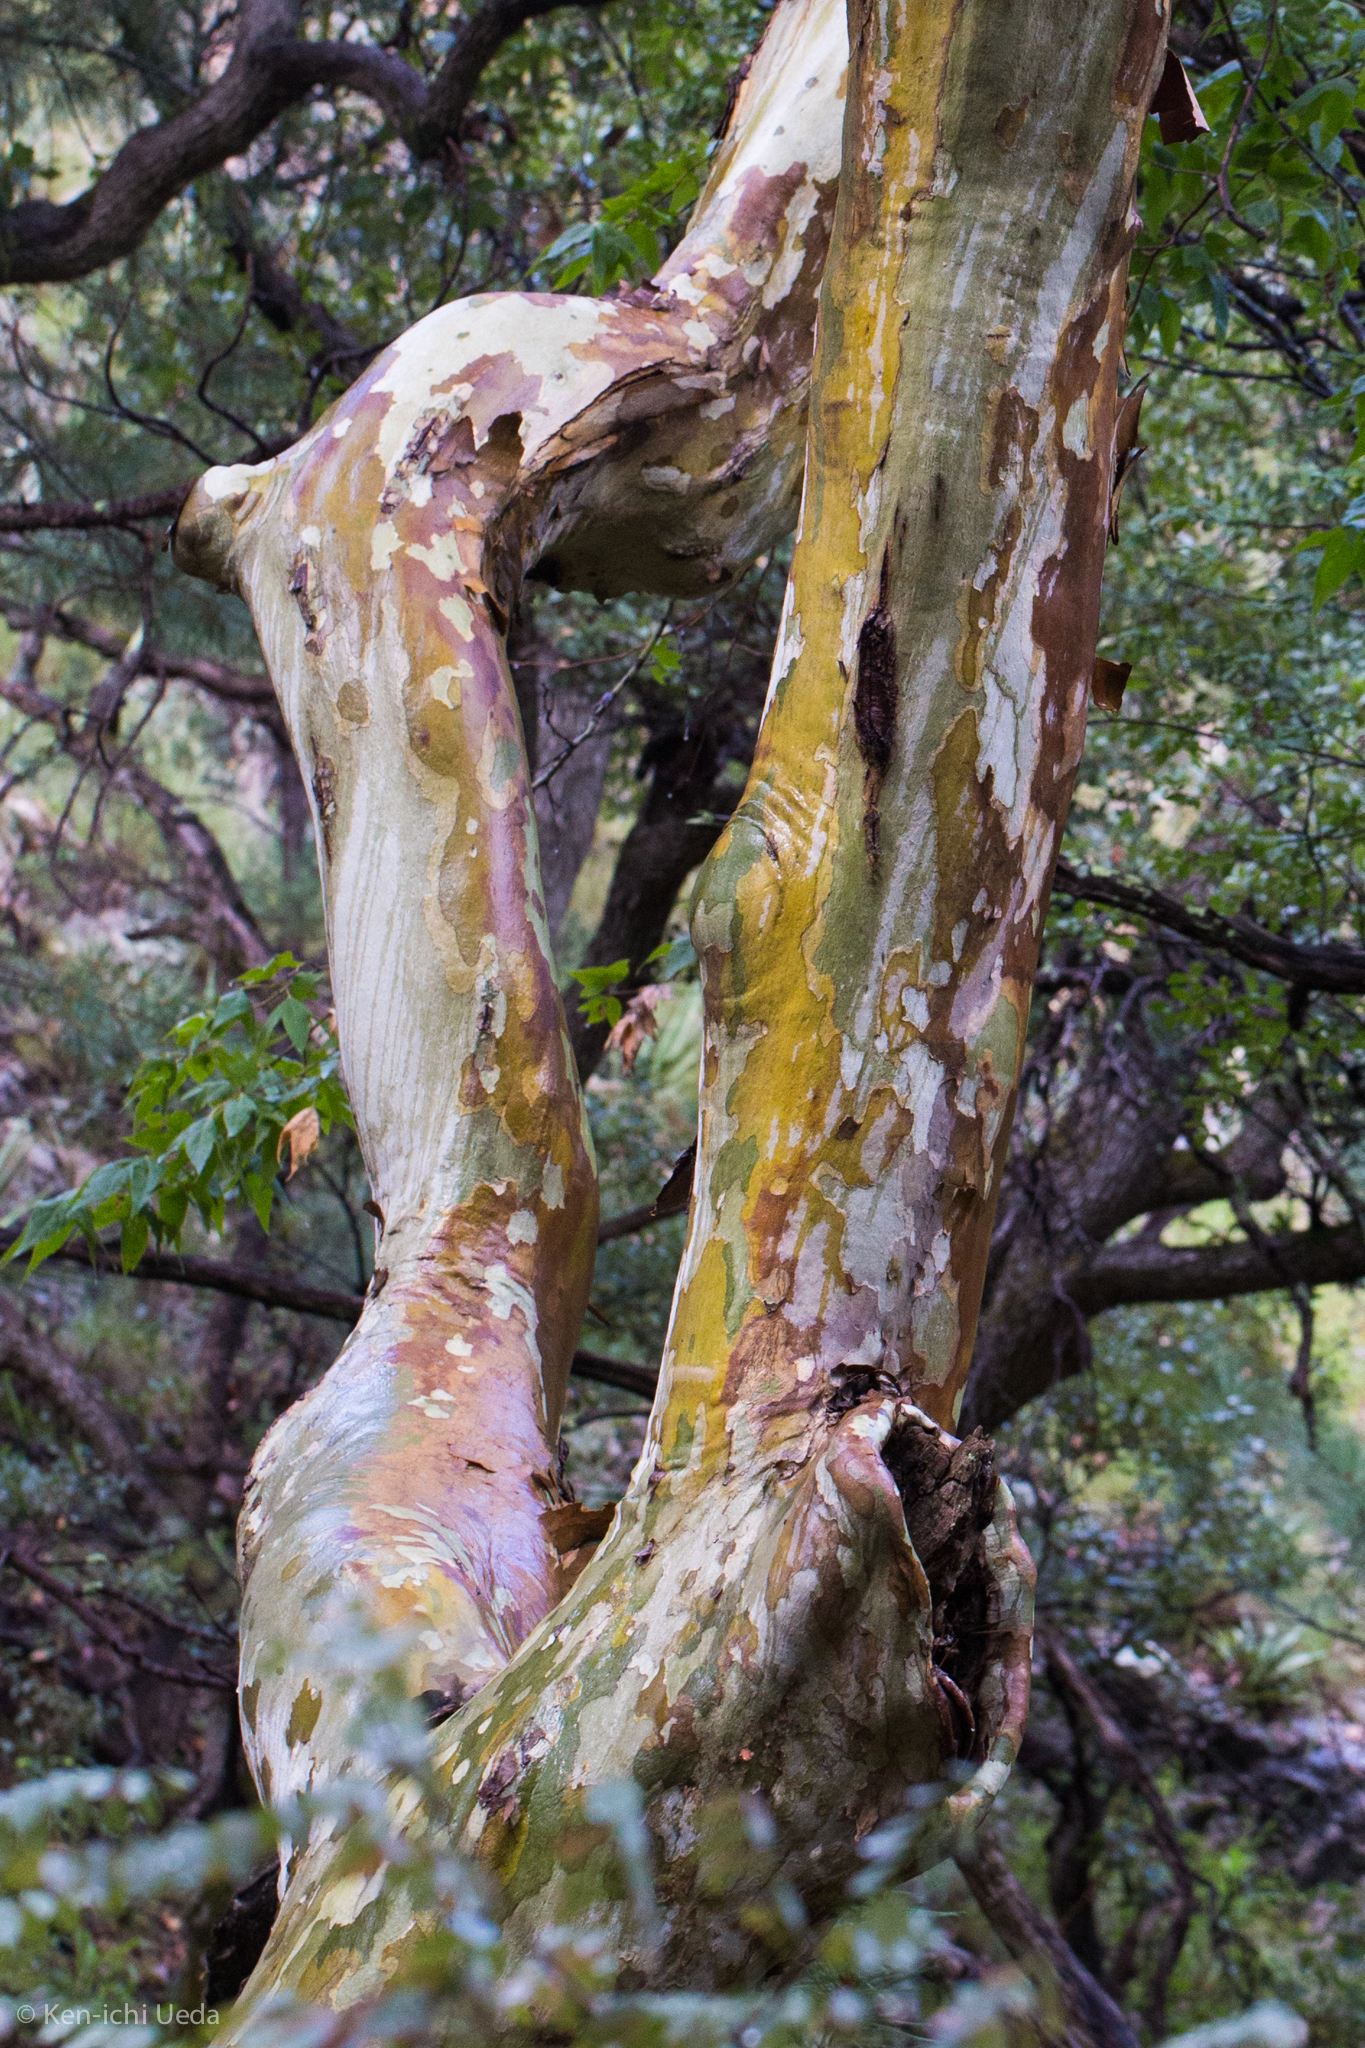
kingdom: Plantae
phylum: Tracheophyta
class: Magnoliopsida
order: Proteales
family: Platanaceae
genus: Platanus
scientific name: Platanus wrightii
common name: Arizona sycamore
